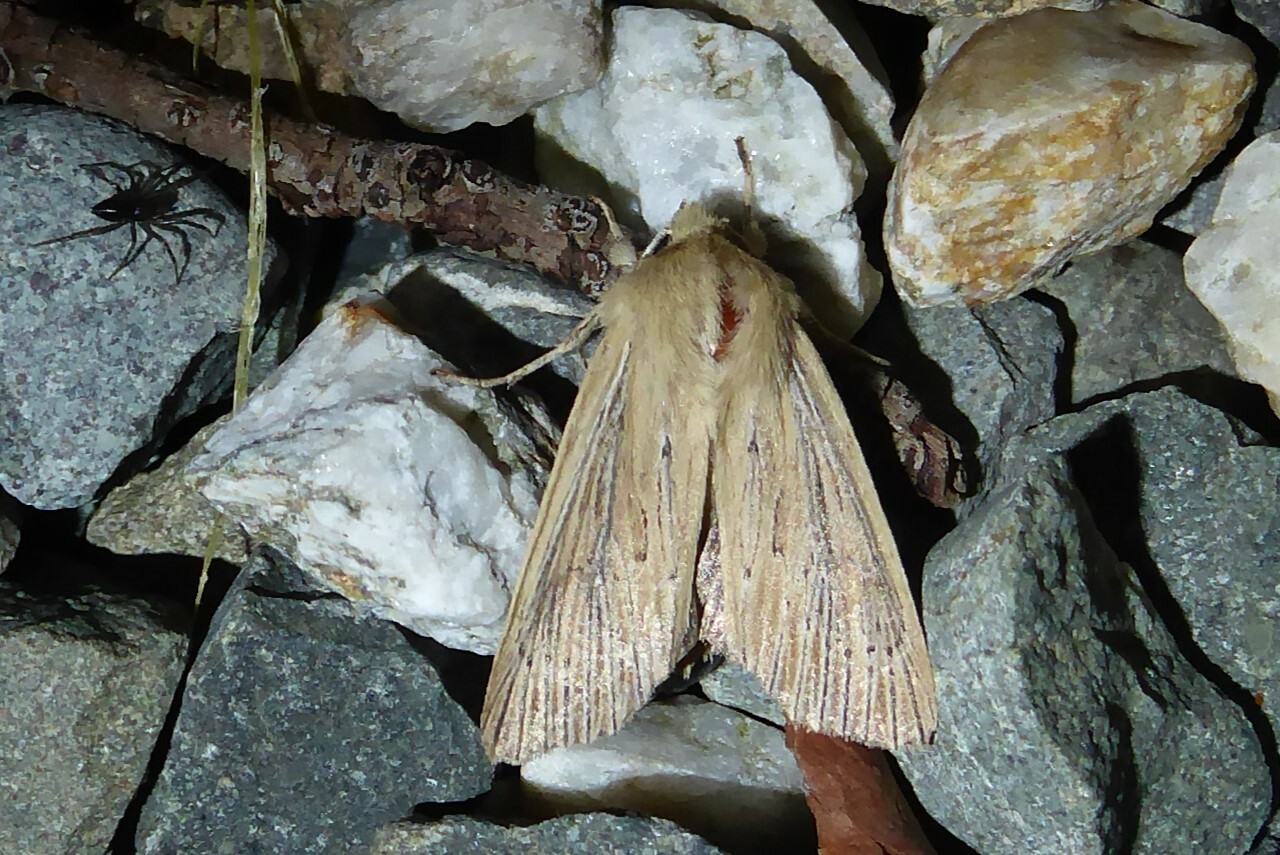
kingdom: Animalia
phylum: Arthropoda
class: Insecta
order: Lepidoptera
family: Noctuidae
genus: Ichneutica
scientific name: Ichneutica arotis
